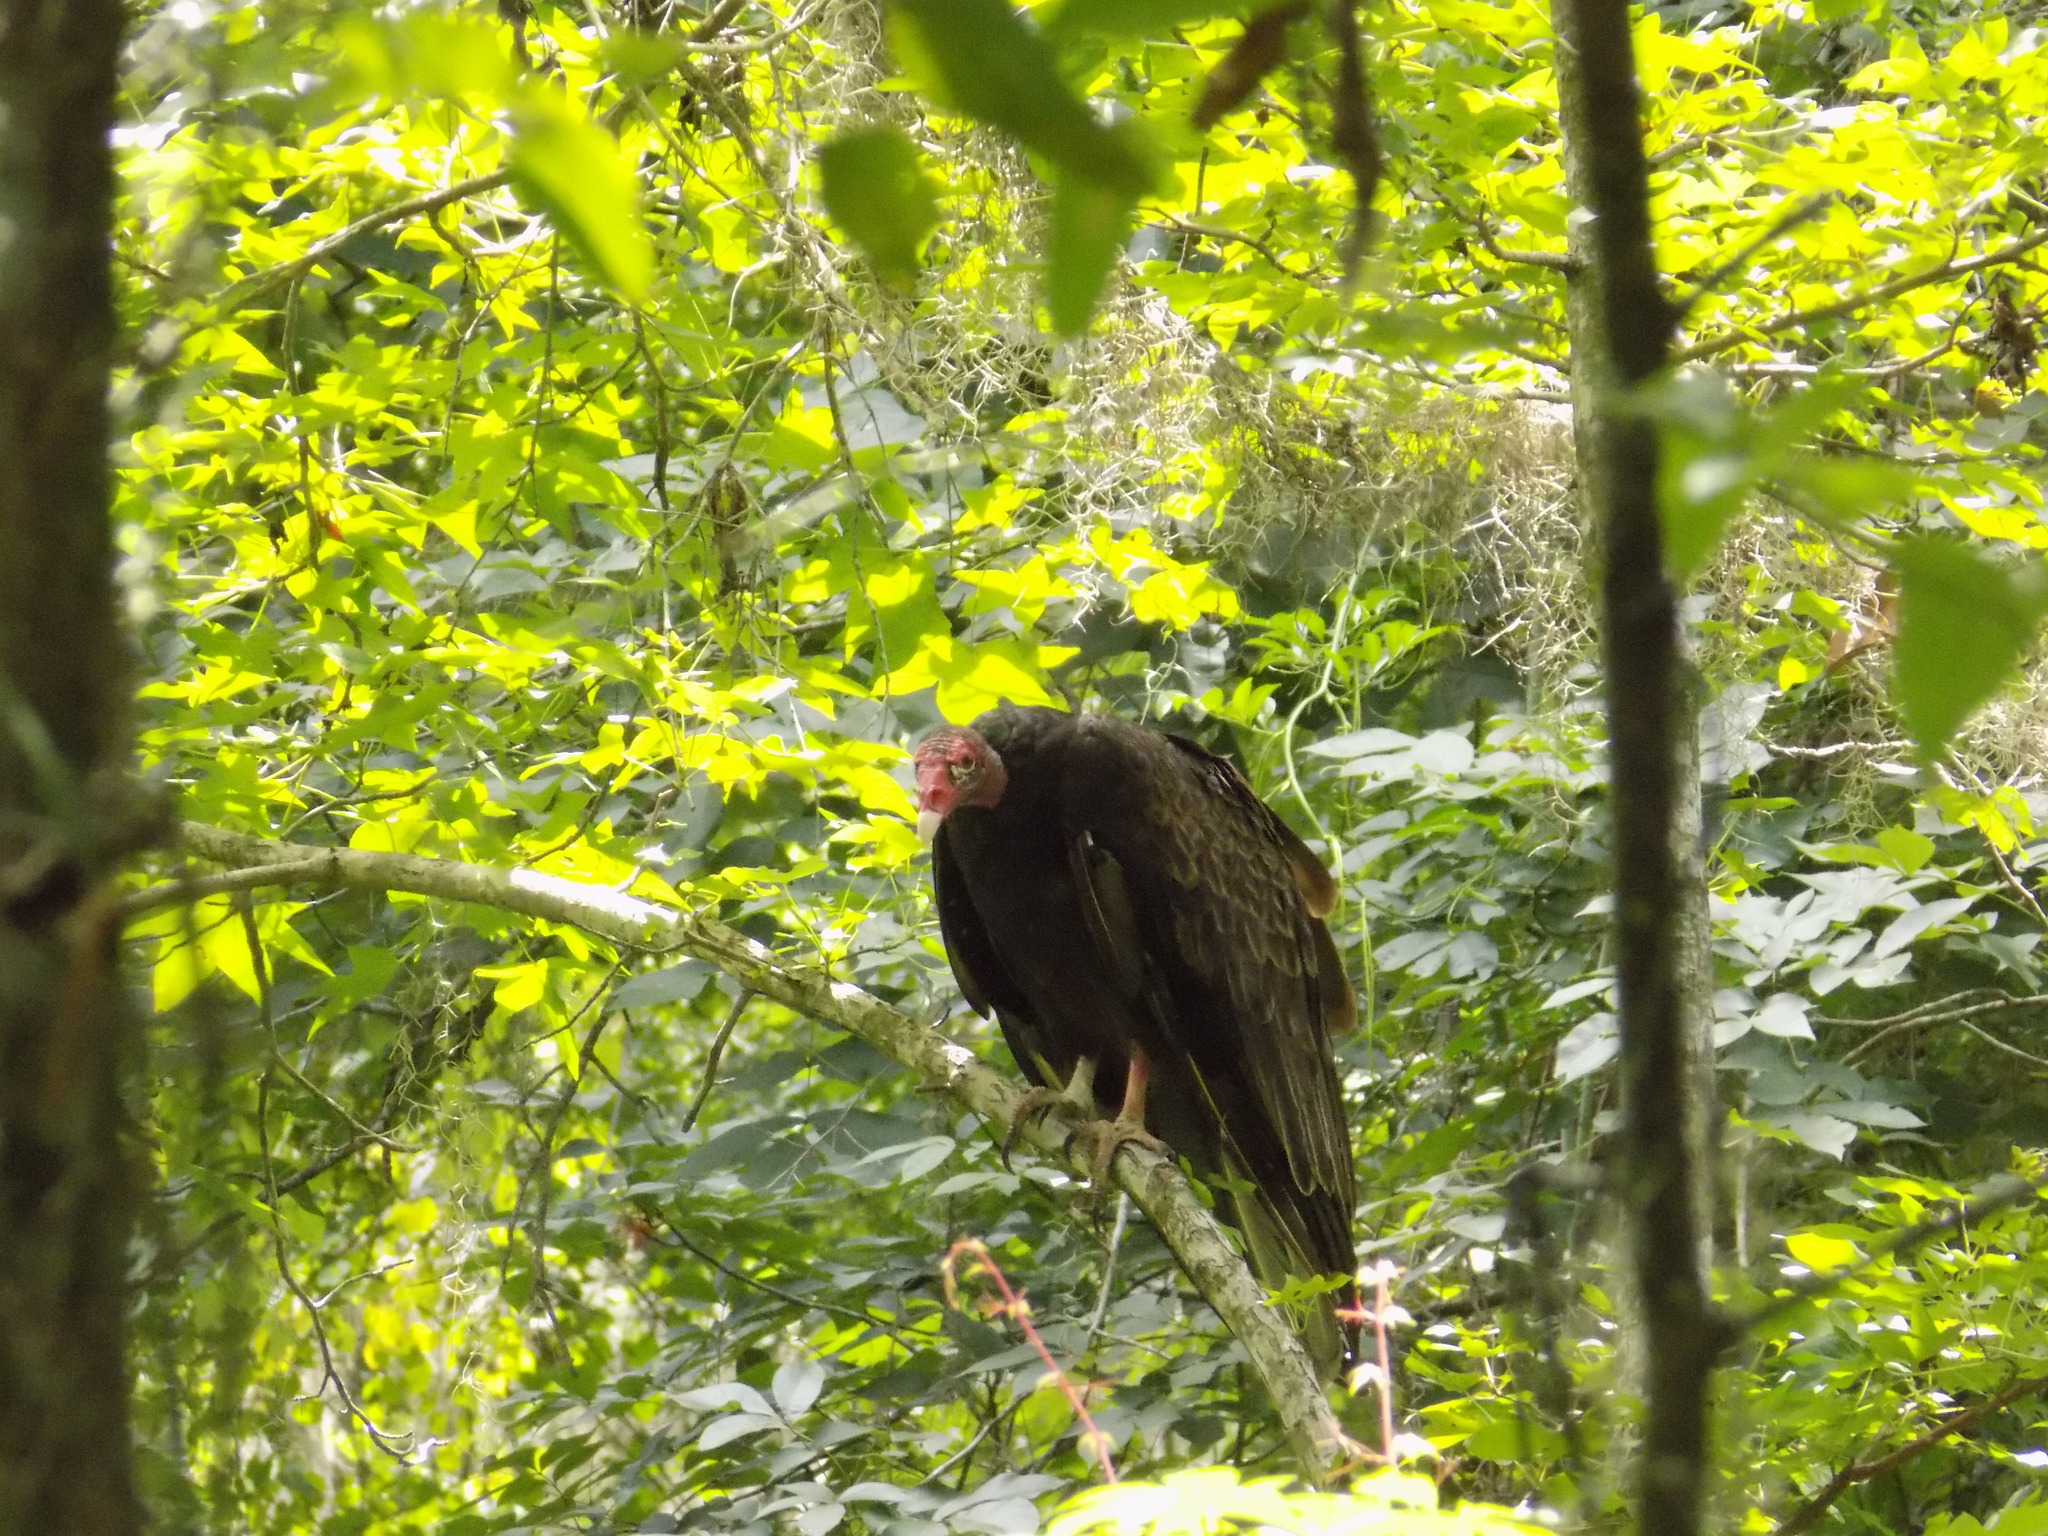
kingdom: Animalia
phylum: Chordata
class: Aves
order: Accipitriformes
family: Cathartidae
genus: Cathartes
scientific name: Cathartes aura
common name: Turkey vulture
